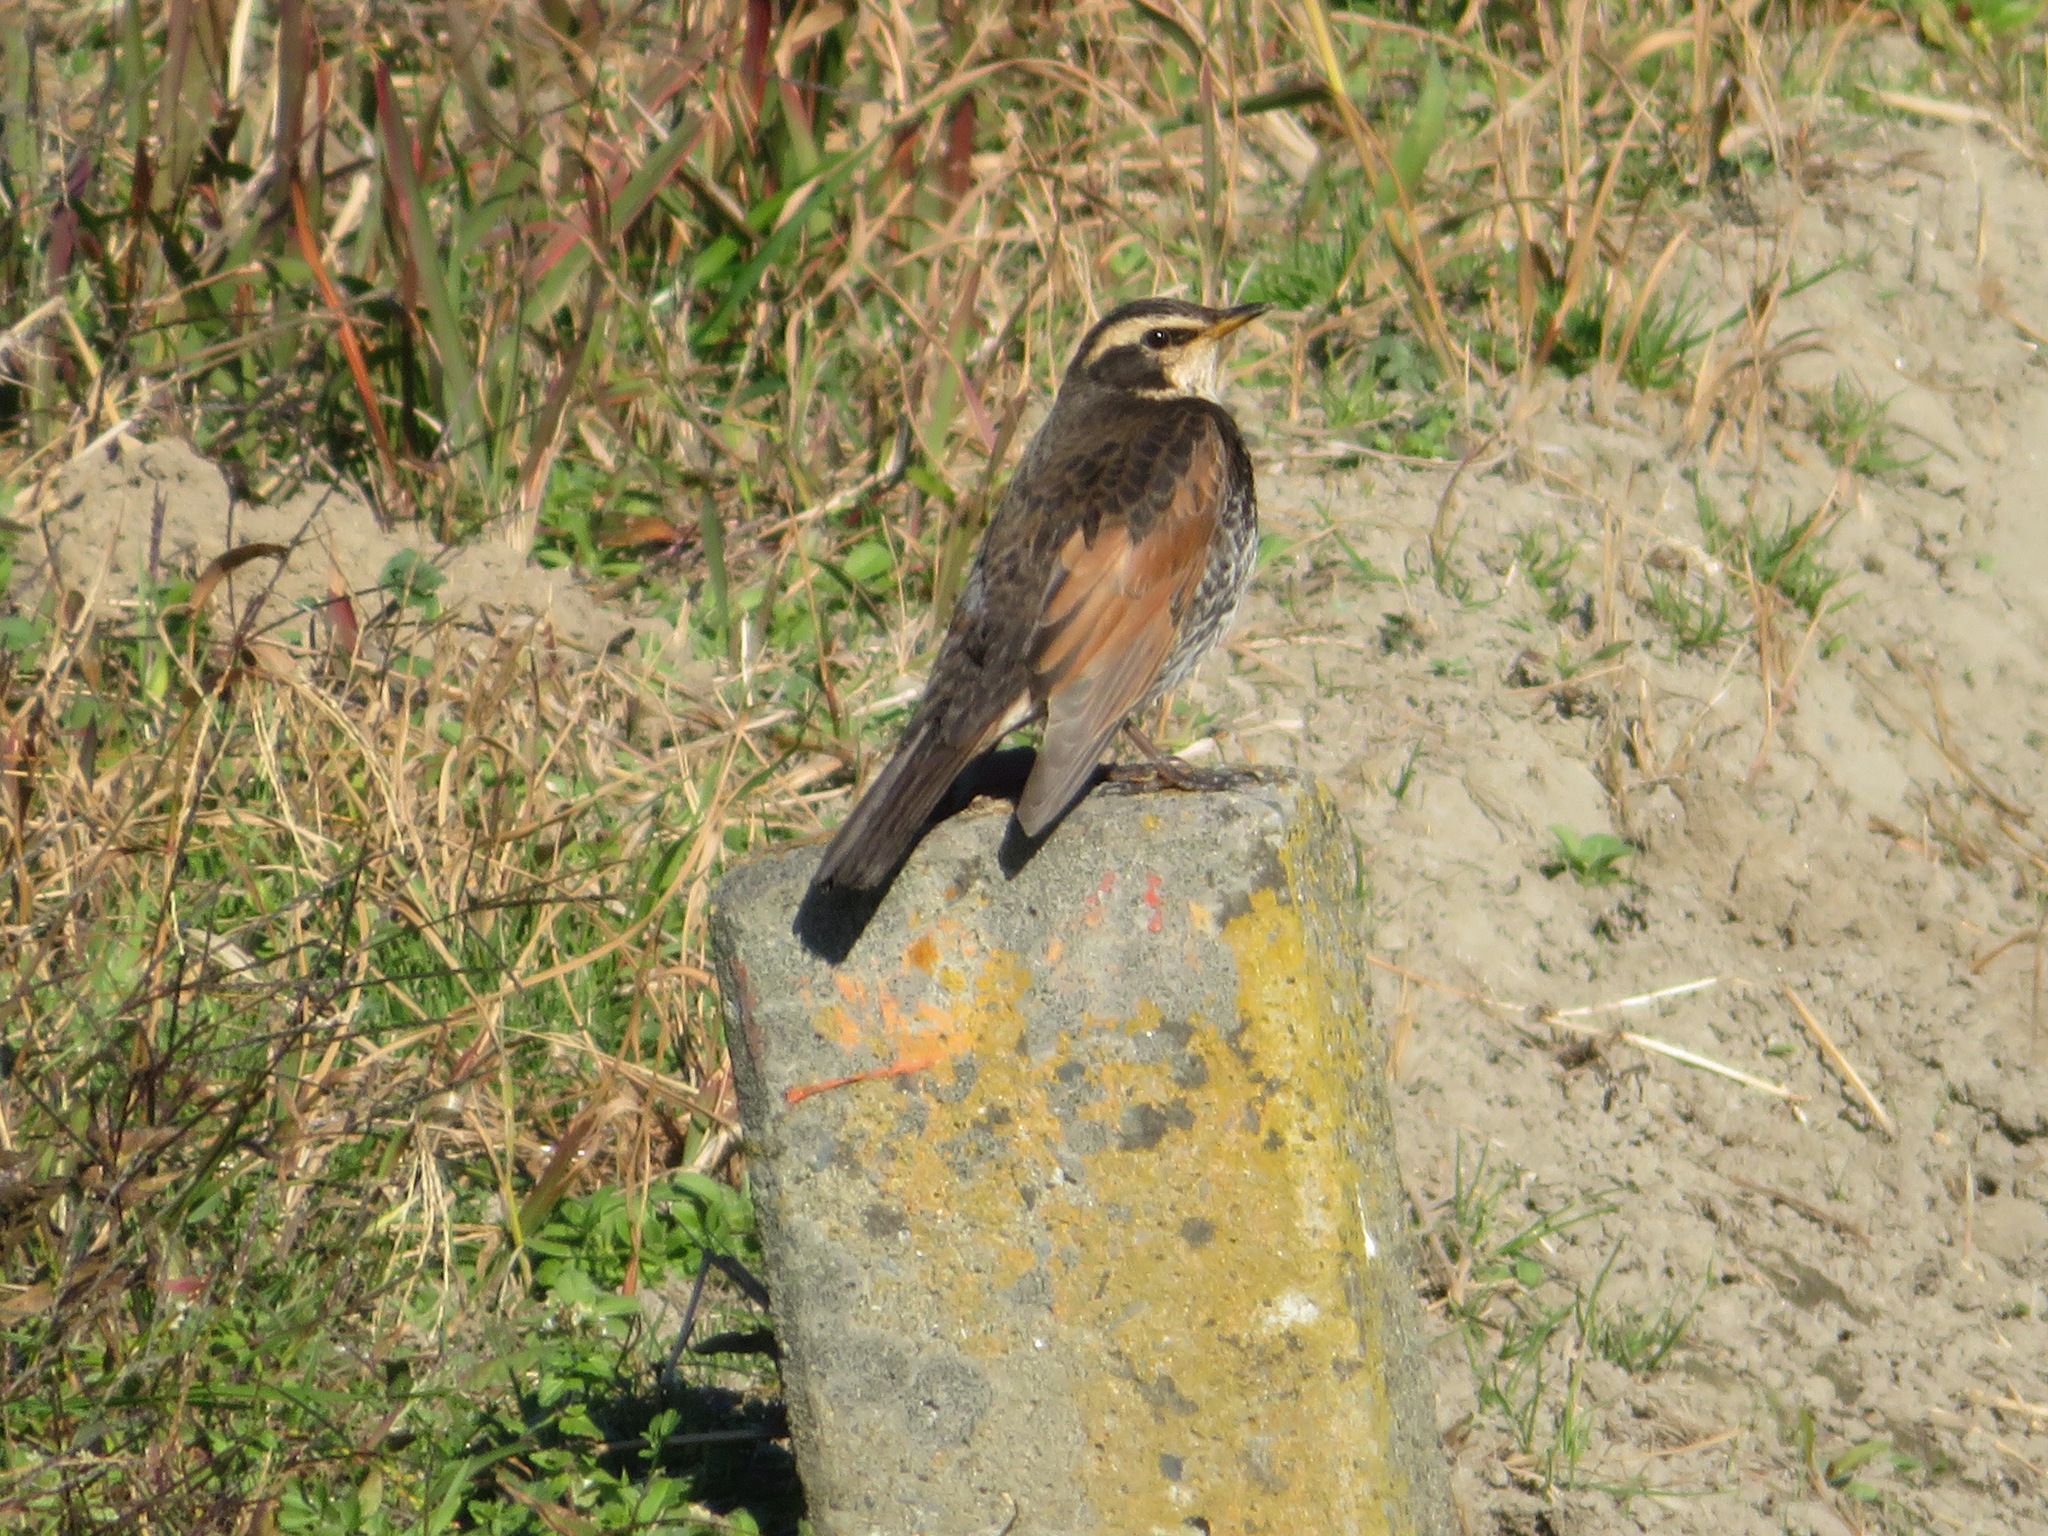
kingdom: Animalia
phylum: Chordata
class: Aves
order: Passeriformes
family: Turdidae
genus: Turdus
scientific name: Turdus eunomus
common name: Dusky thrush
